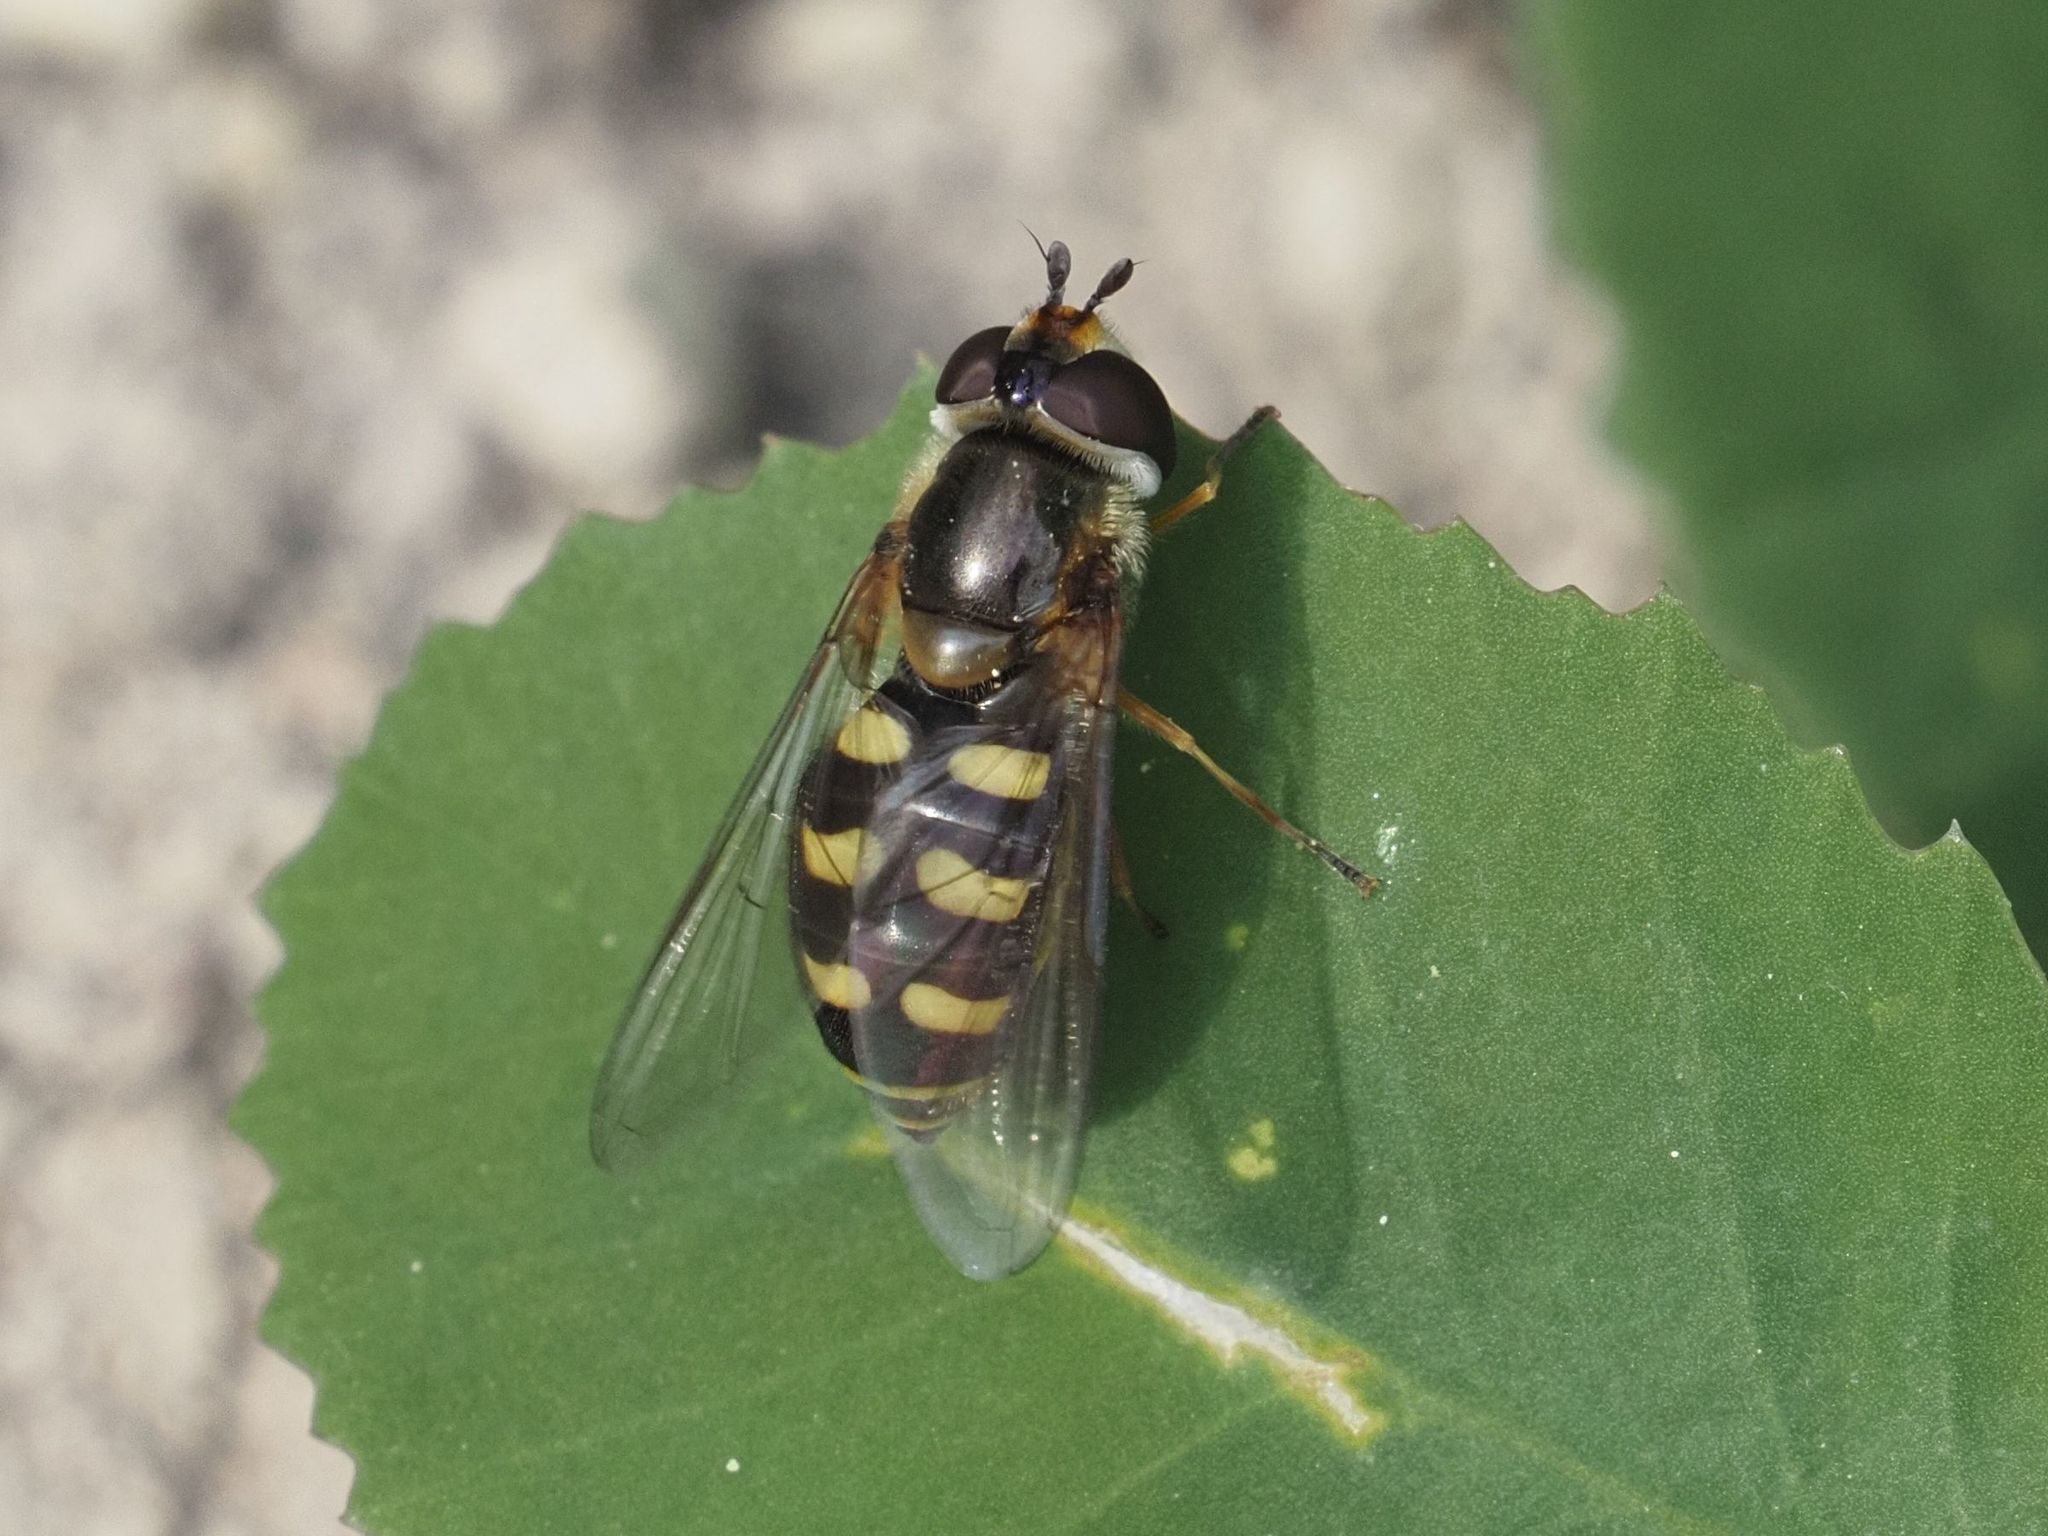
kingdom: Animalia
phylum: Arthropoda
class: Insecta
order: Diptera
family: Syrphidae
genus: Eupeodes
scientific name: Eupeodes luniger
